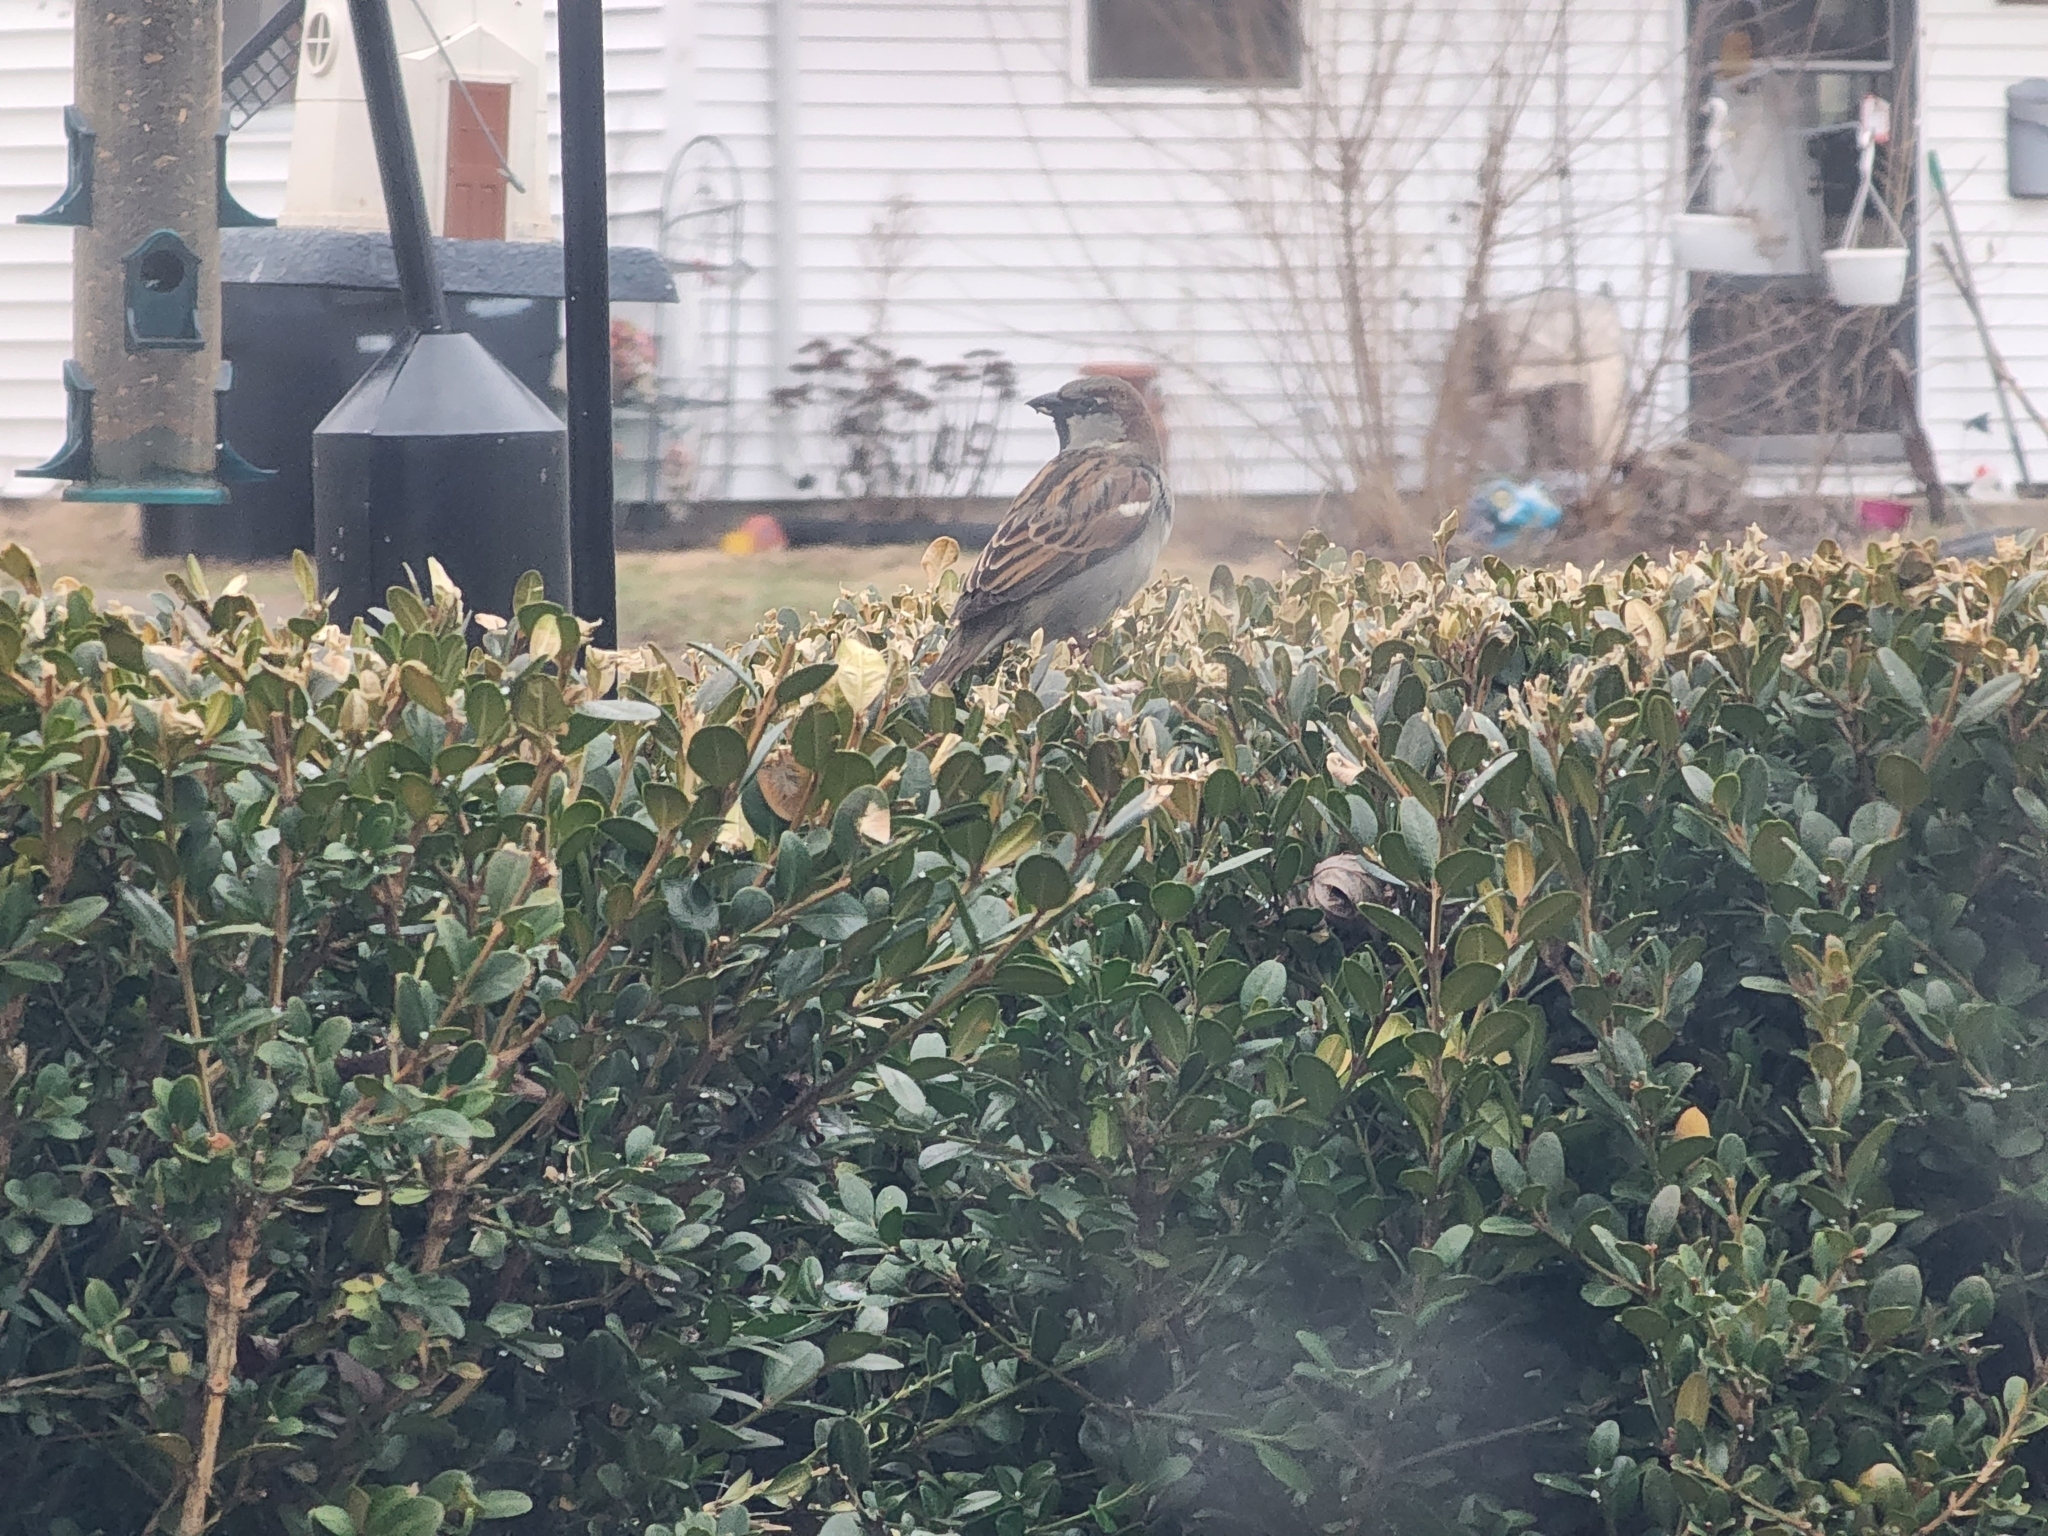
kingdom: Animalia
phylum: Chordata
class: Aves
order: Passeriformes
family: Passeridae
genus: Passer
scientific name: Passer domesticus
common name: House sparrow
